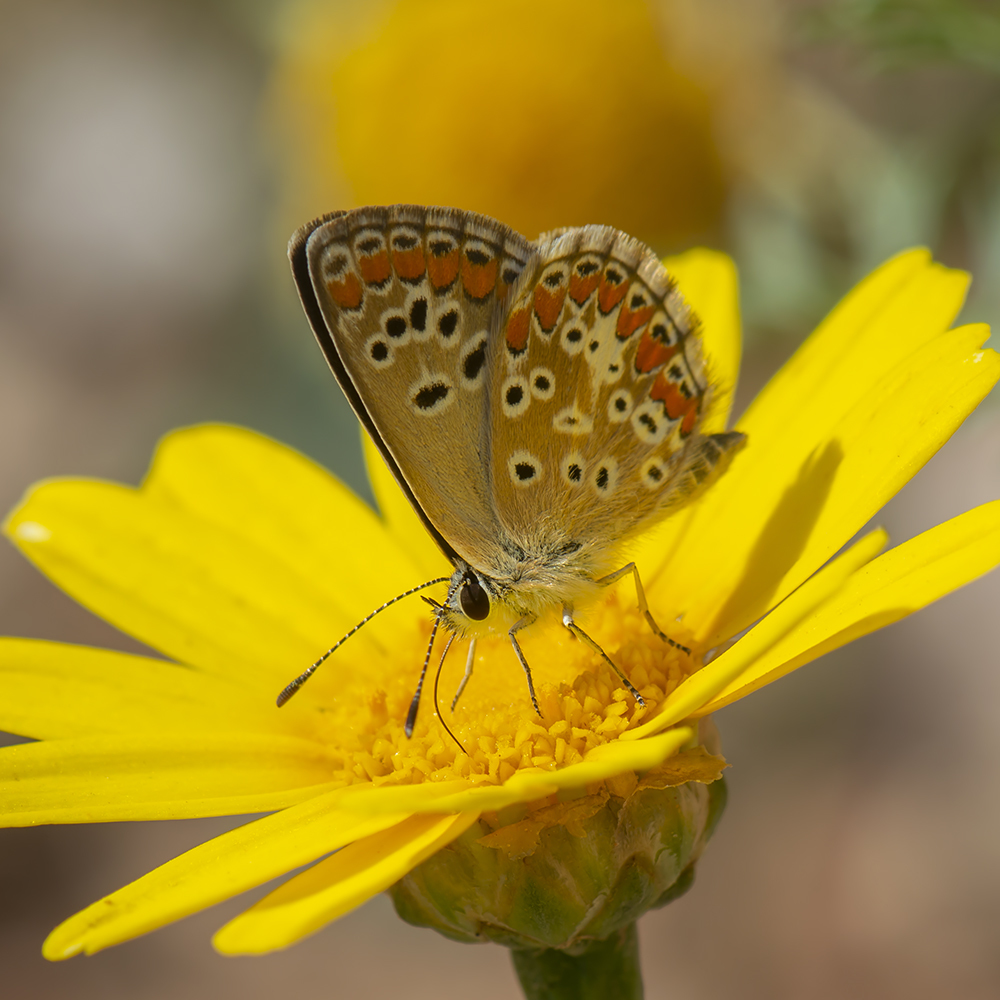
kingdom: Animalia
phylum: Arthropoda
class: Insecta
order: Lepidoptera
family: Lycaenidae
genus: Aricia
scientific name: Aricia agestis
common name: Brown argus
